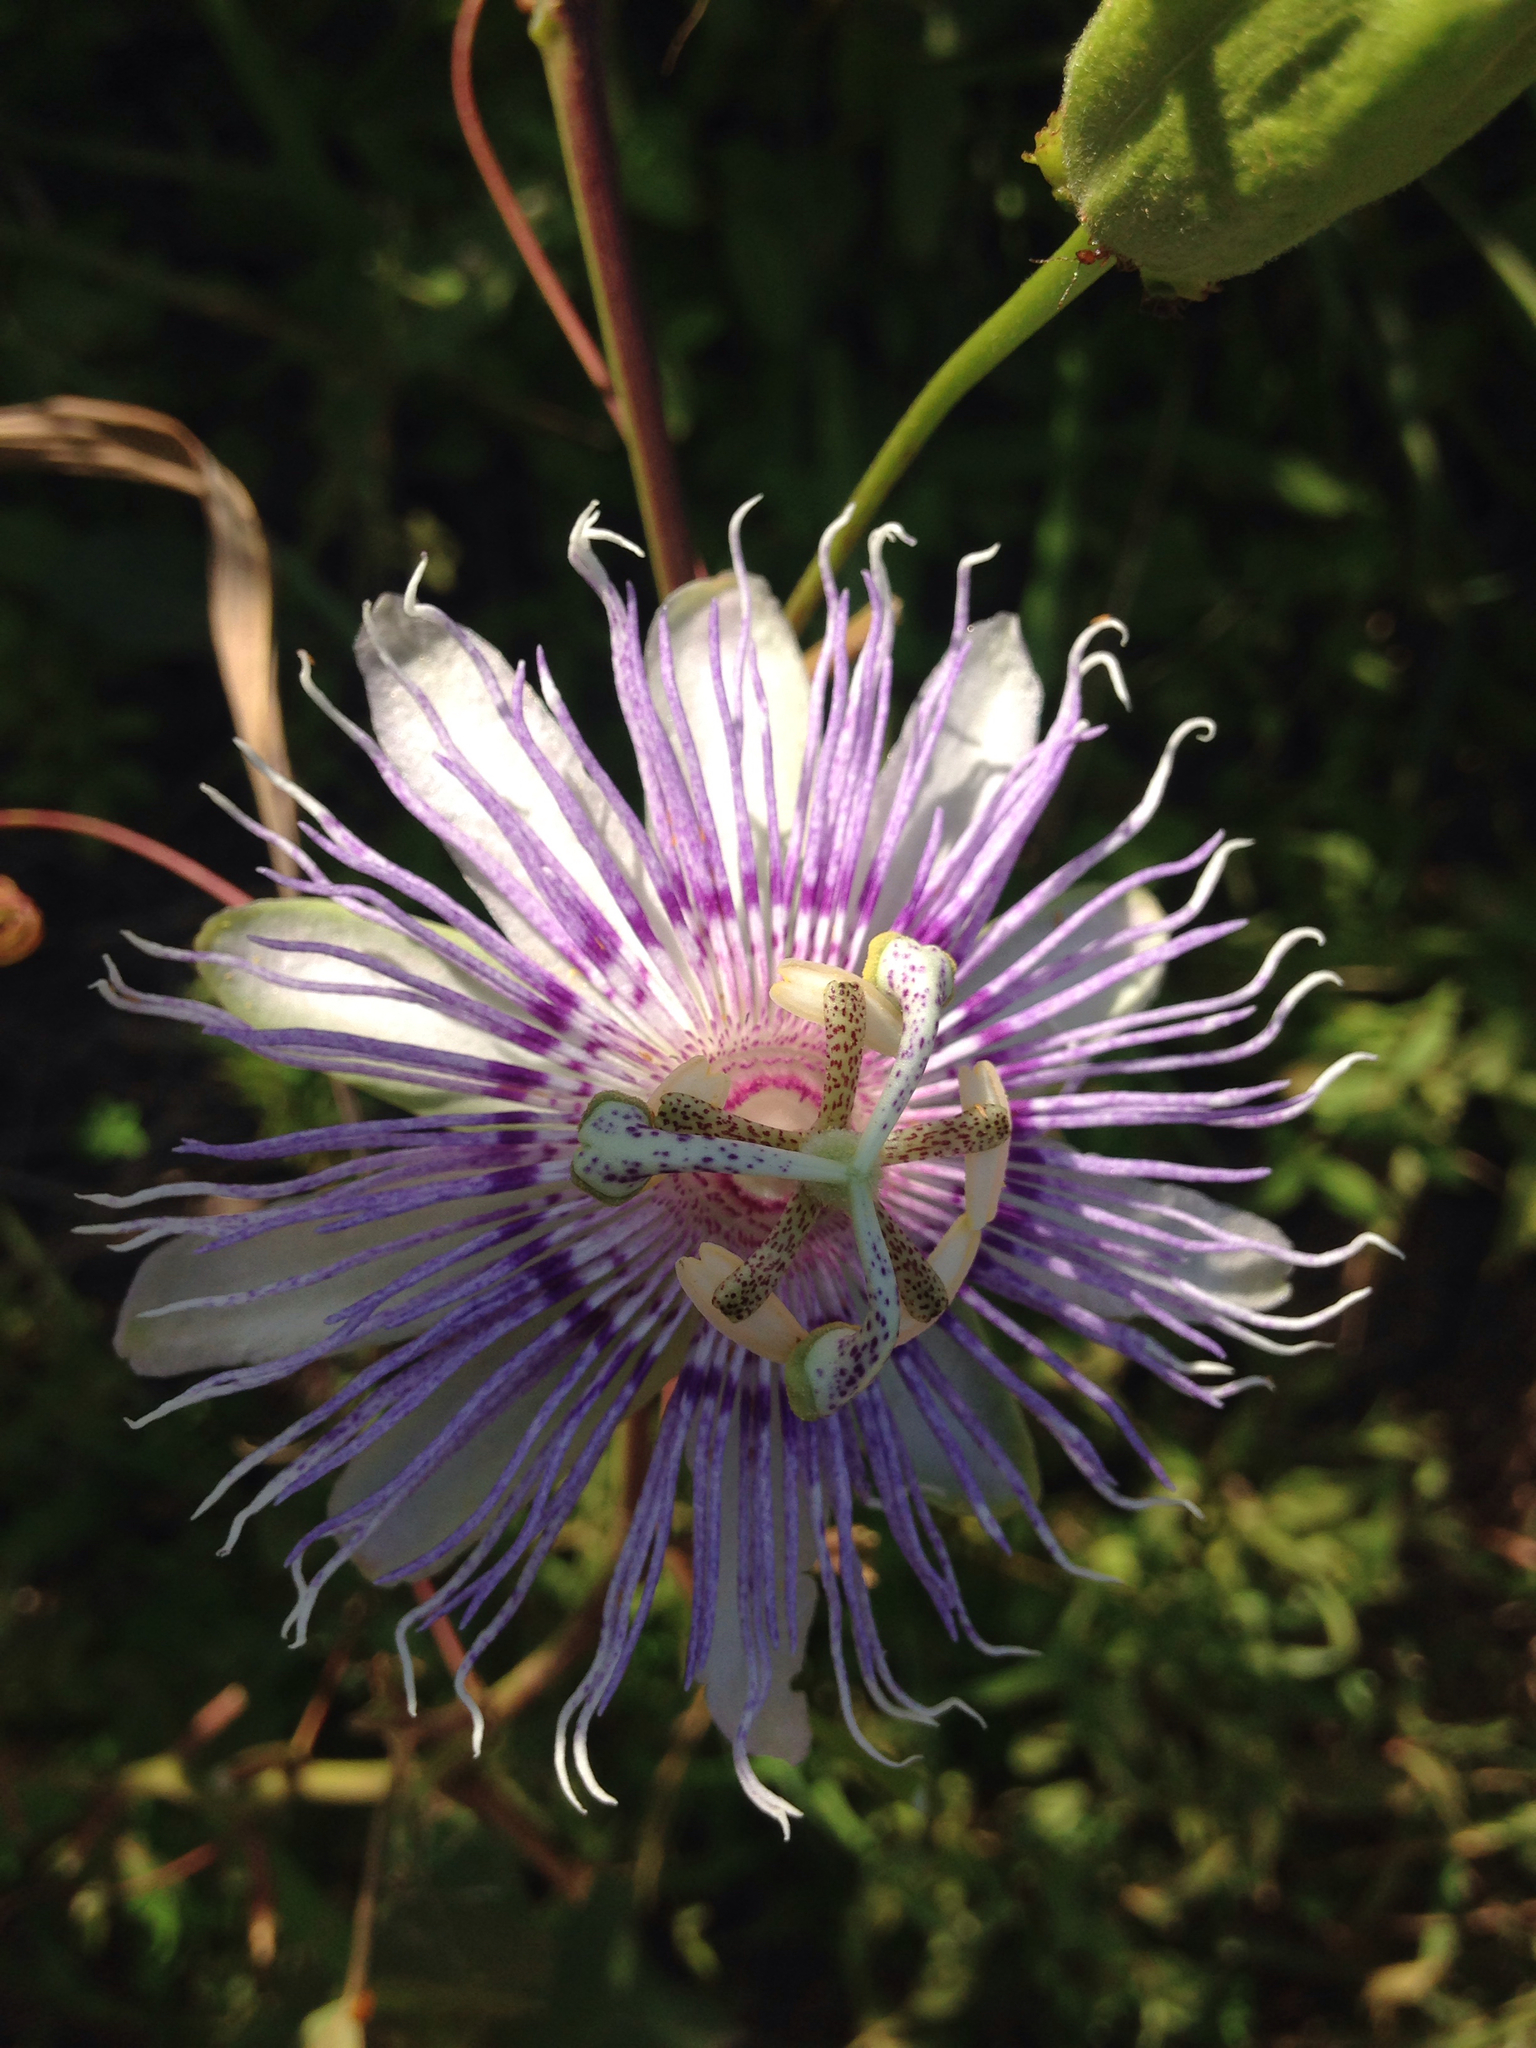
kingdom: Plantae
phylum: Tracheophyta
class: Magnoliopsida
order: Malpighiales
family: Passifloraceae
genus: Passiflora
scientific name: Passiflora incarnata
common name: Apricot-vine
